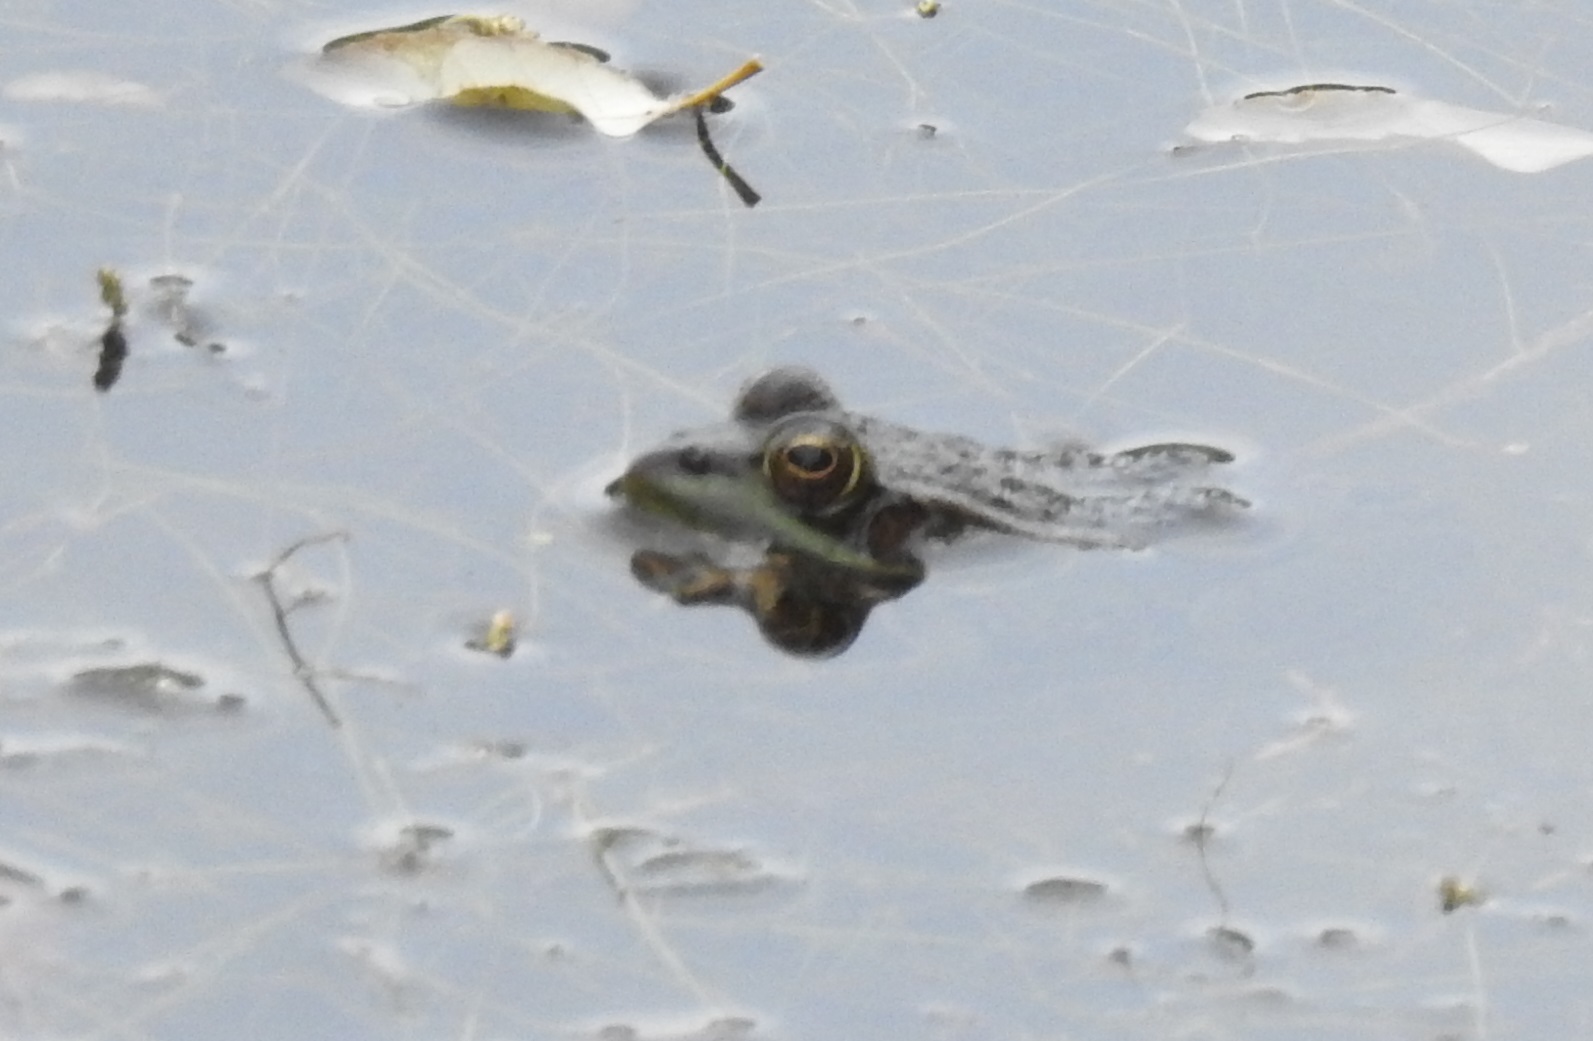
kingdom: Animalia
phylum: Chordata
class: Amphibia
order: Anura
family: Ranidae
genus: Pelophylax
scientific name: Pelophylax saharicus
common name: Sahara frog
